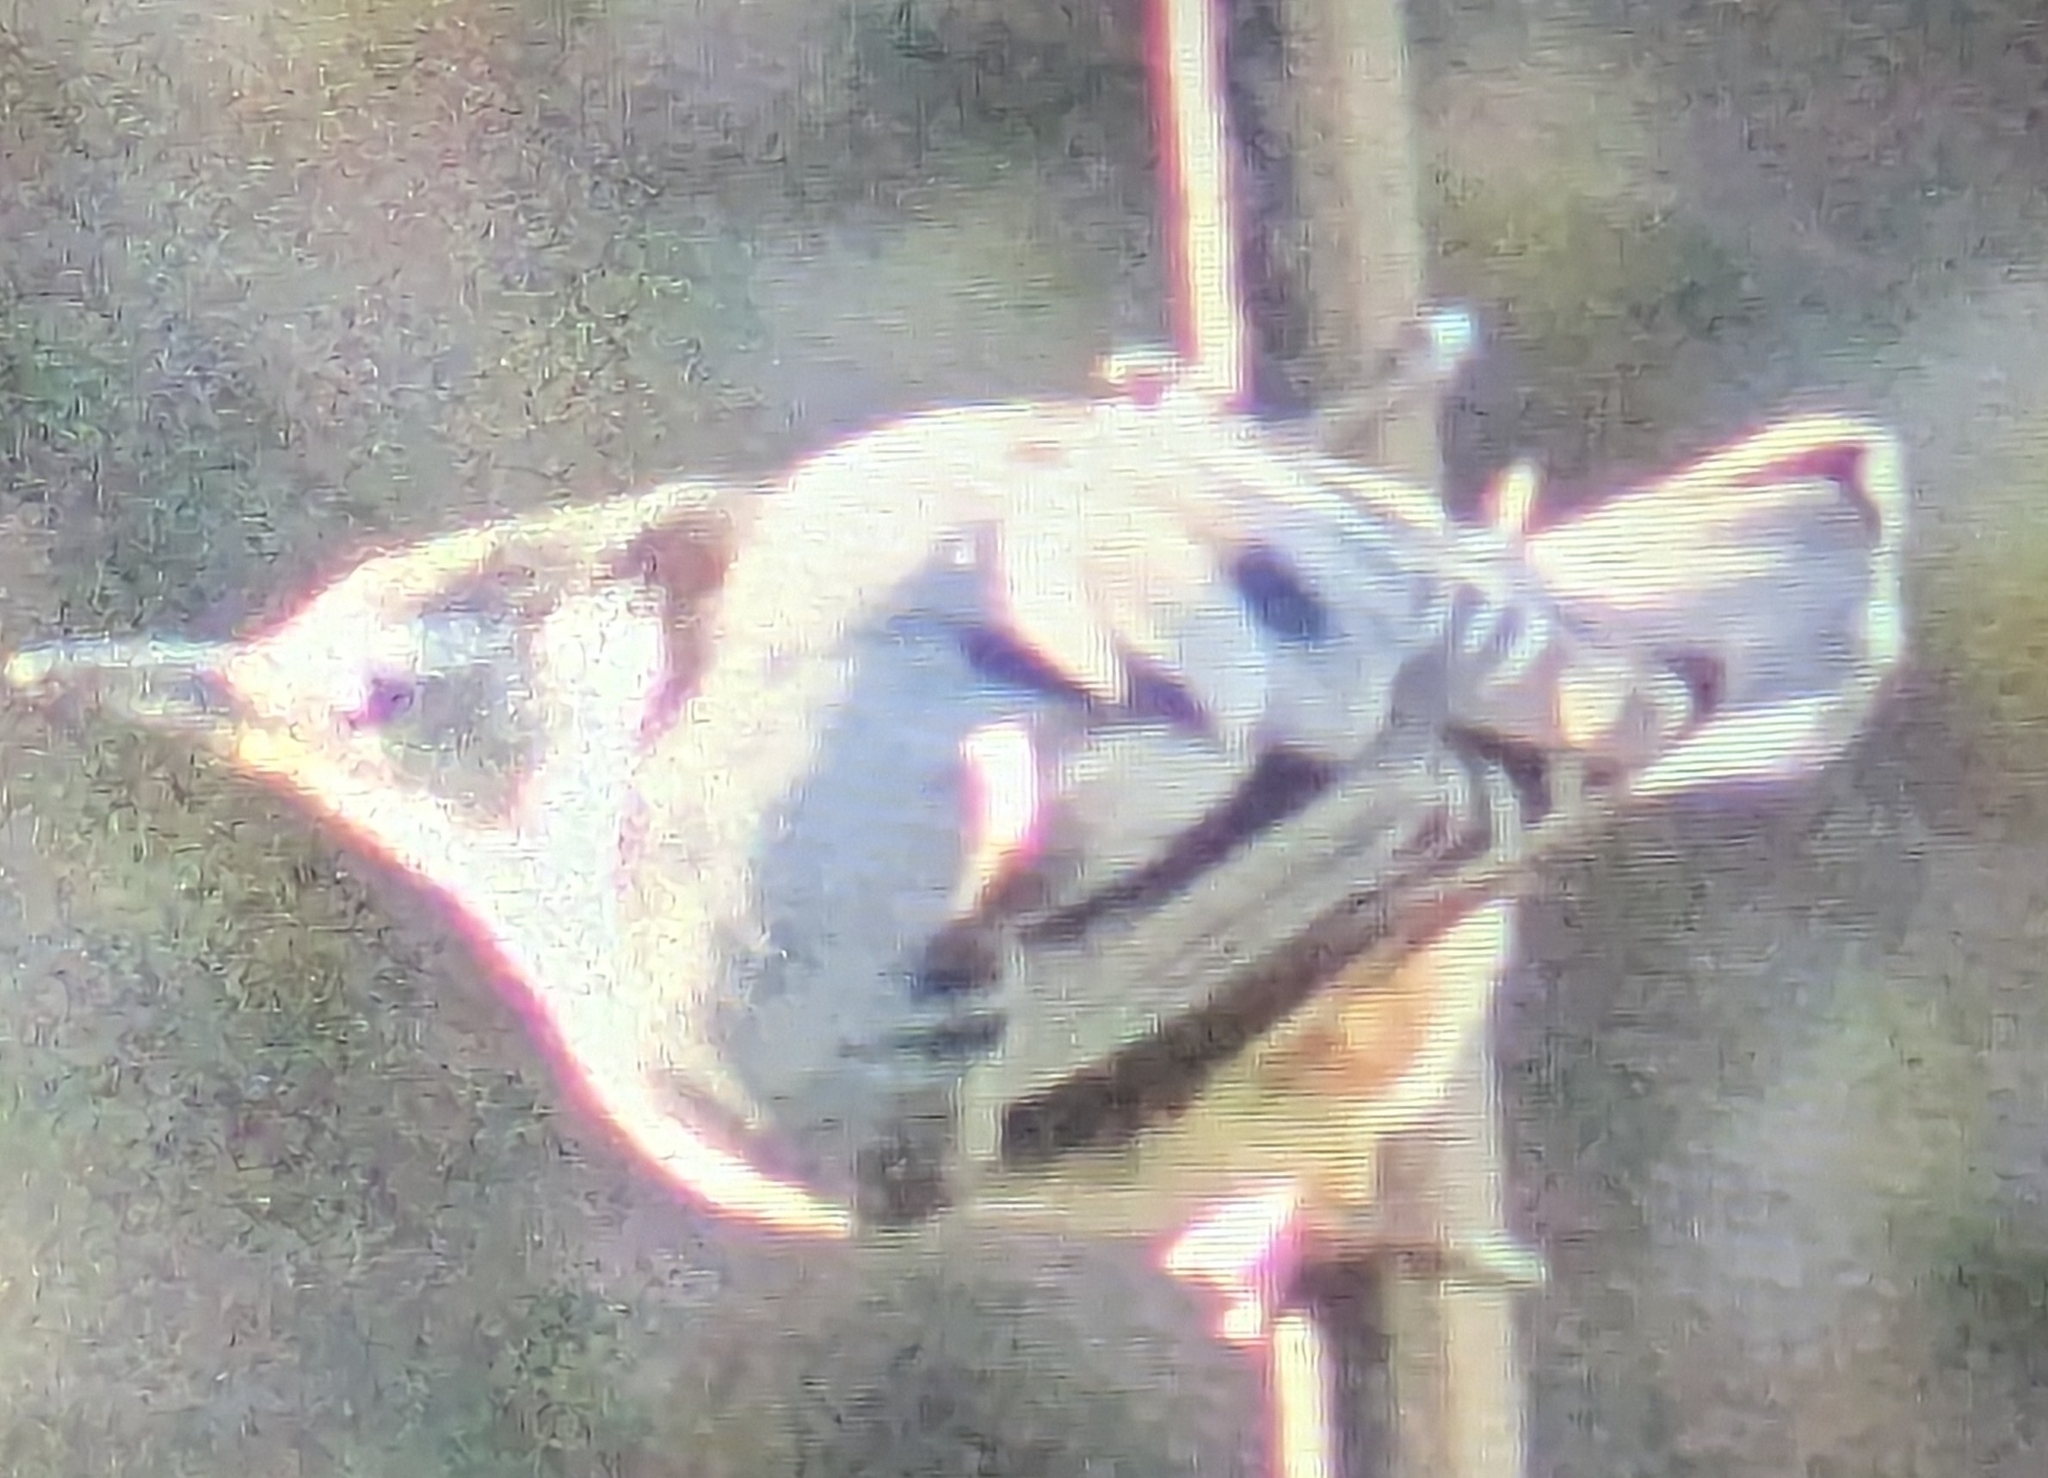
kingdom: Animalia
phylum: Chordata
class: Aves
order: Passeriformes
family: Sittidae
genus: Sitta
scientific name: Sitta carolinensis
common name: White-breasted nuthatch
